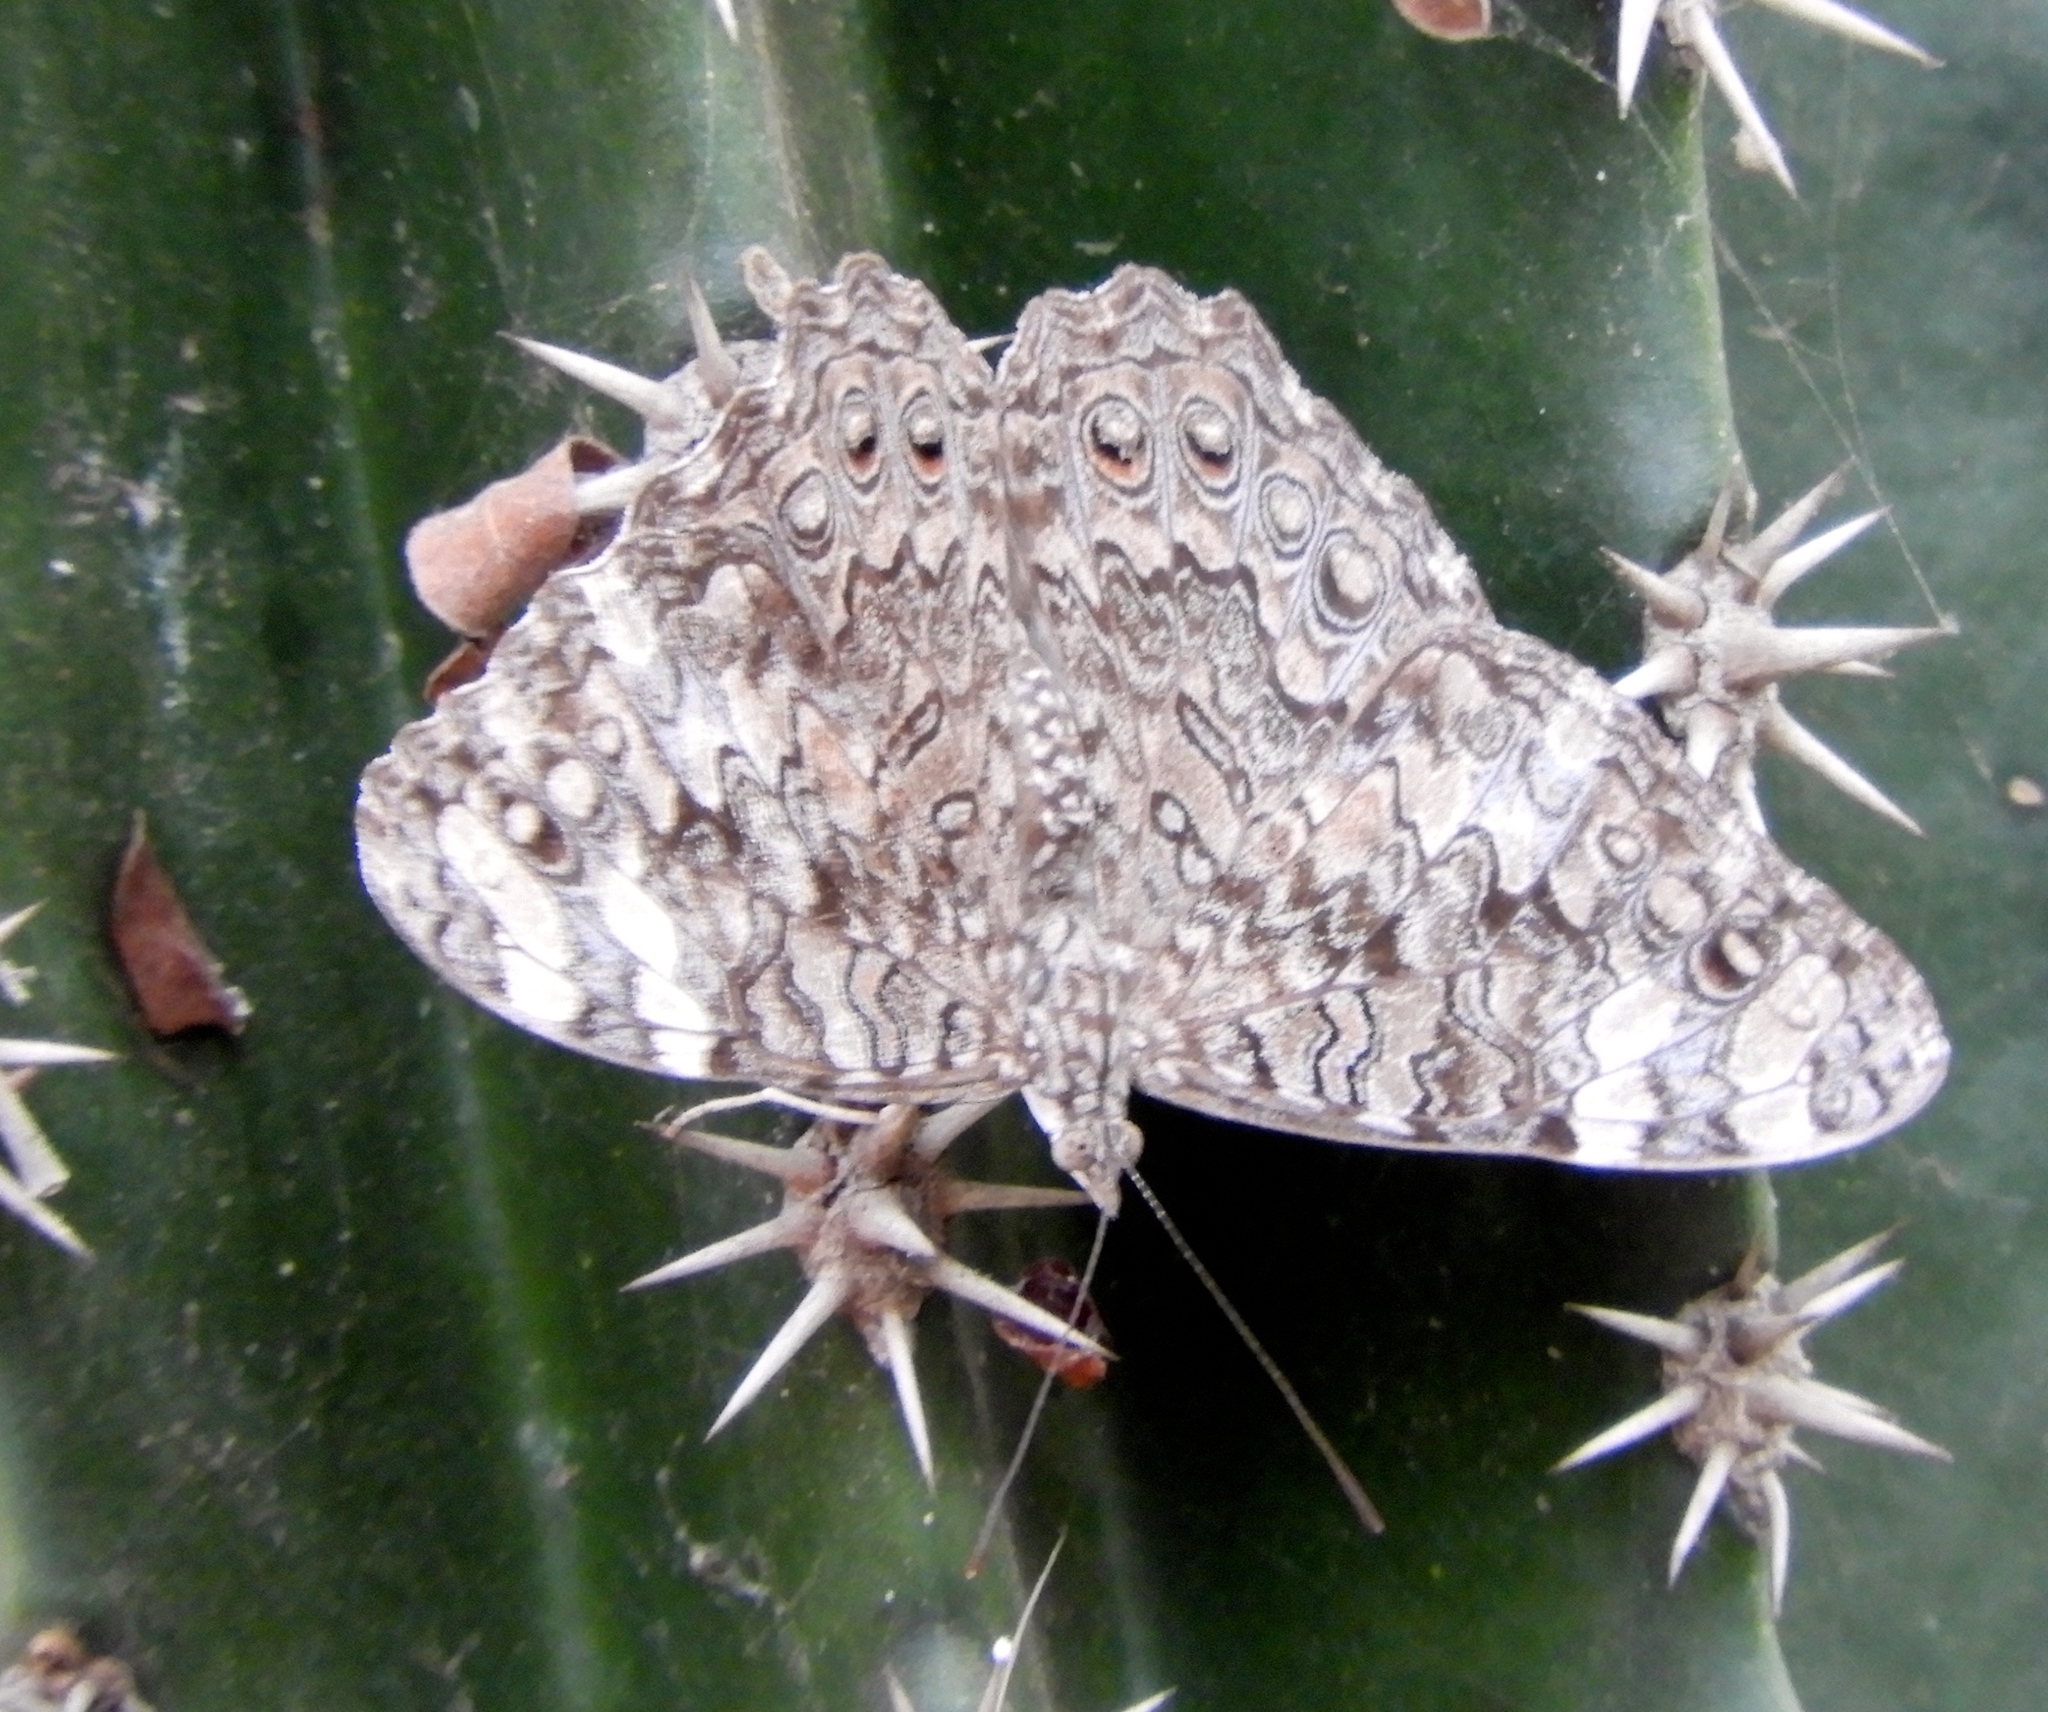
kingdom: Animalia
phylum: Arthropoda
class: Insecta
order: Lepidoptera
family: Nymphalidae
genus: Hamadryas
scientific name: Hamadryas februa
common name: Gray cracker
